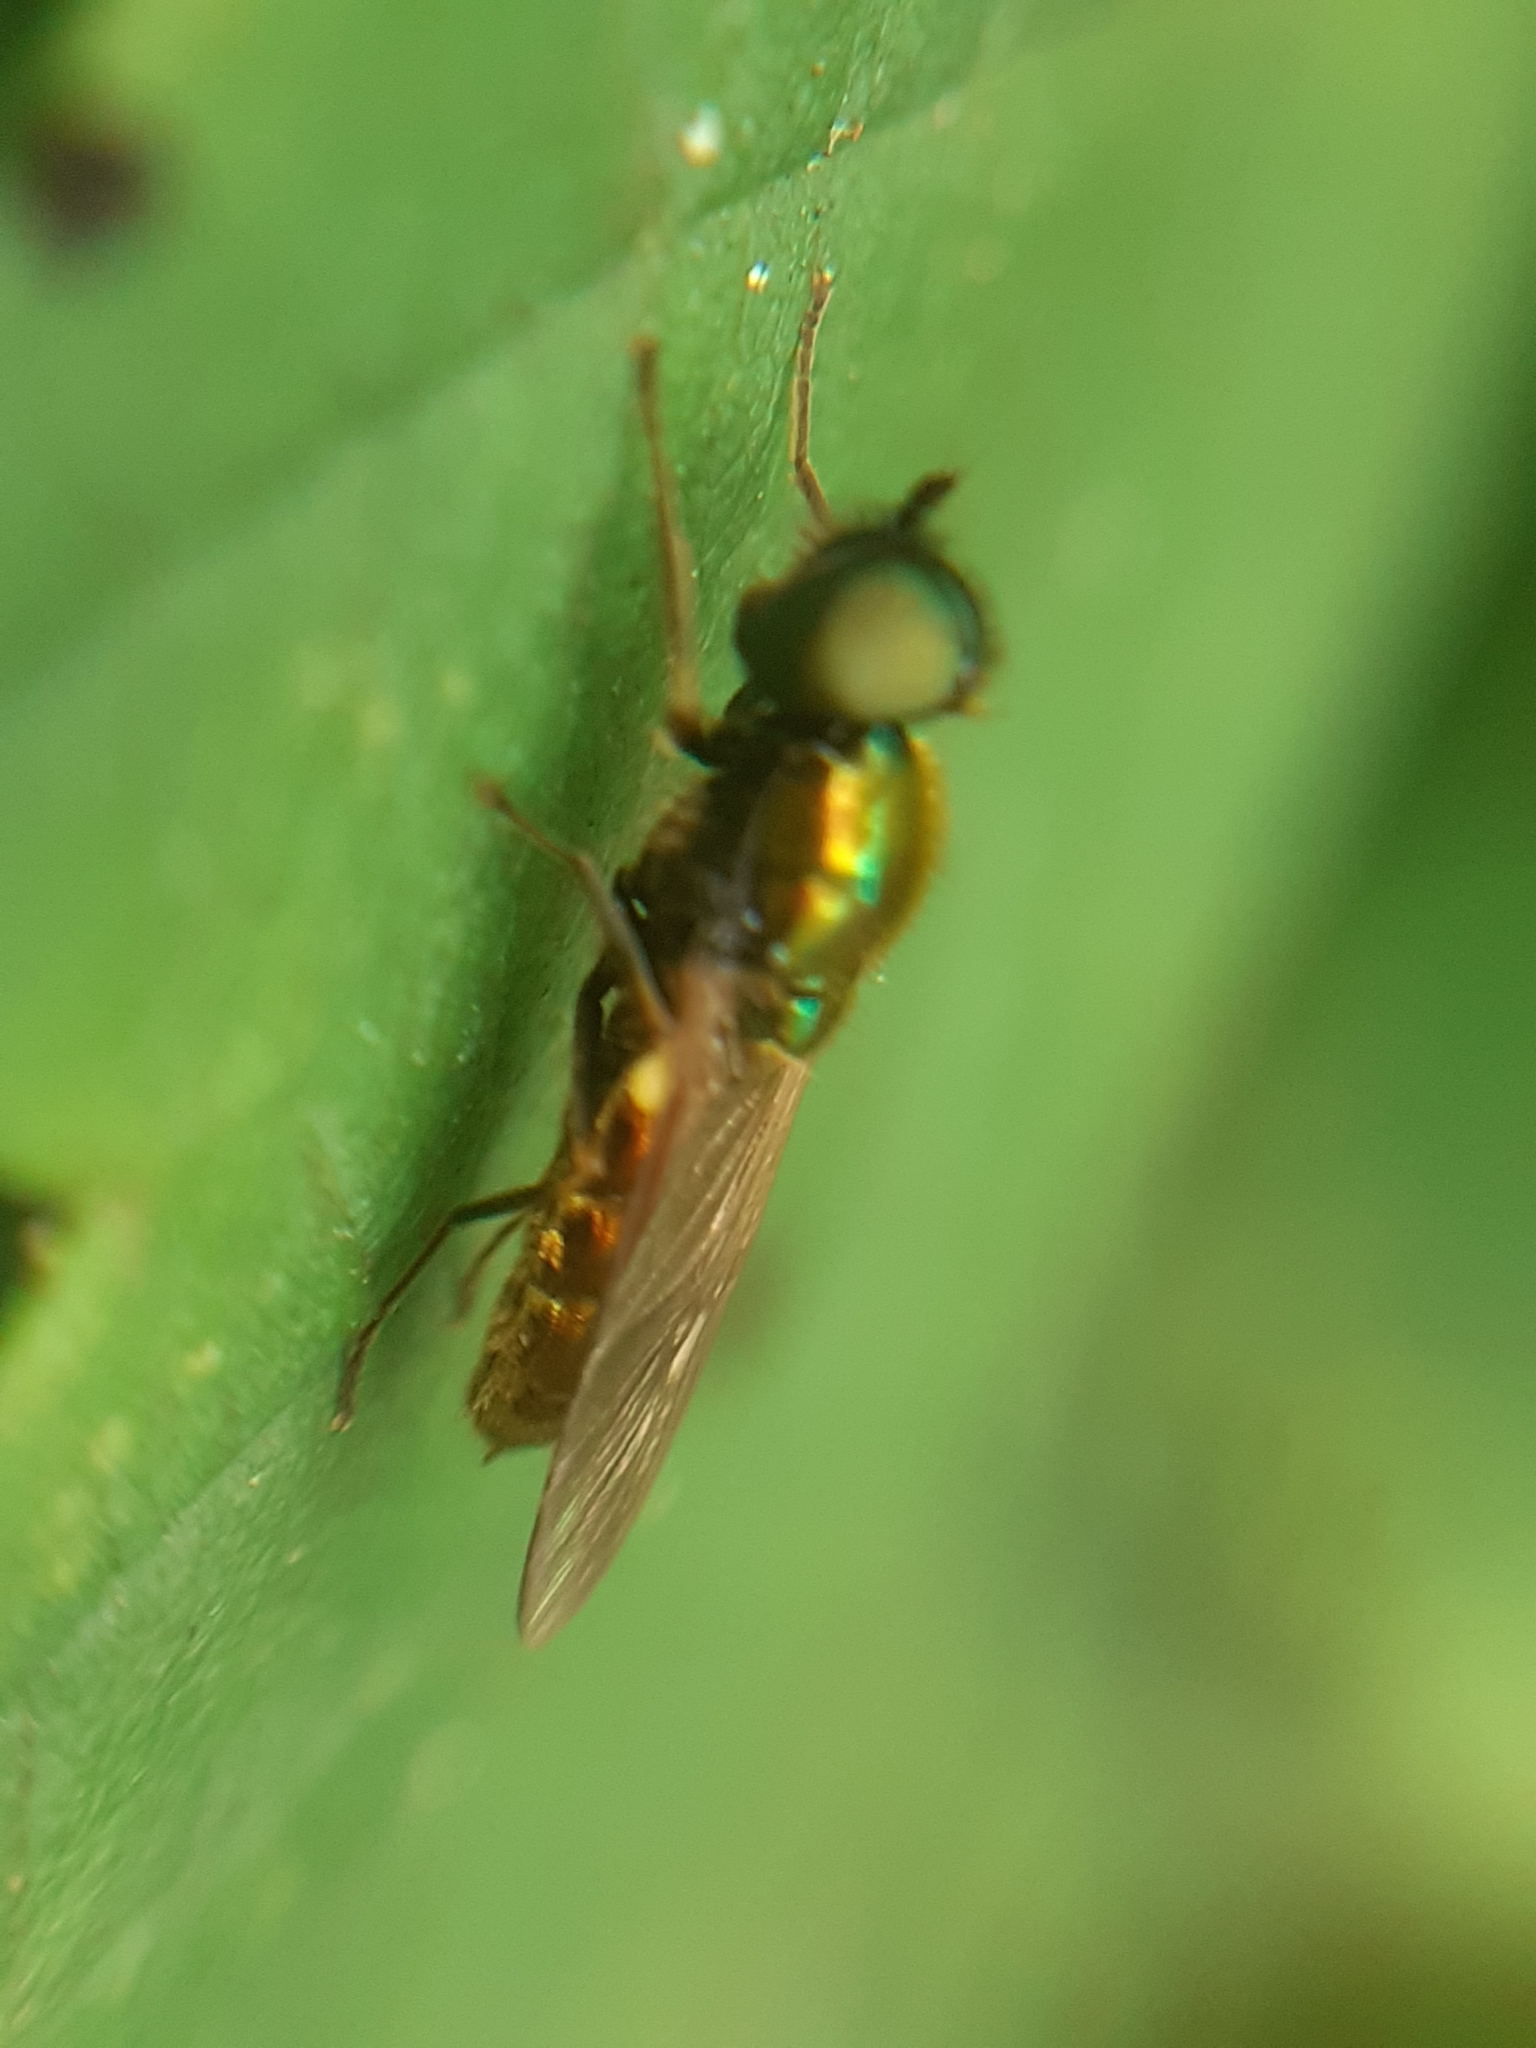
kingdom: Animalia
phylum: Arthropoda
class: Insecta
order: Diptera
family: Stratiomyidae
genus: Chloromyia
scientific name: Chloromyia formosa
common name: Soldier fly
